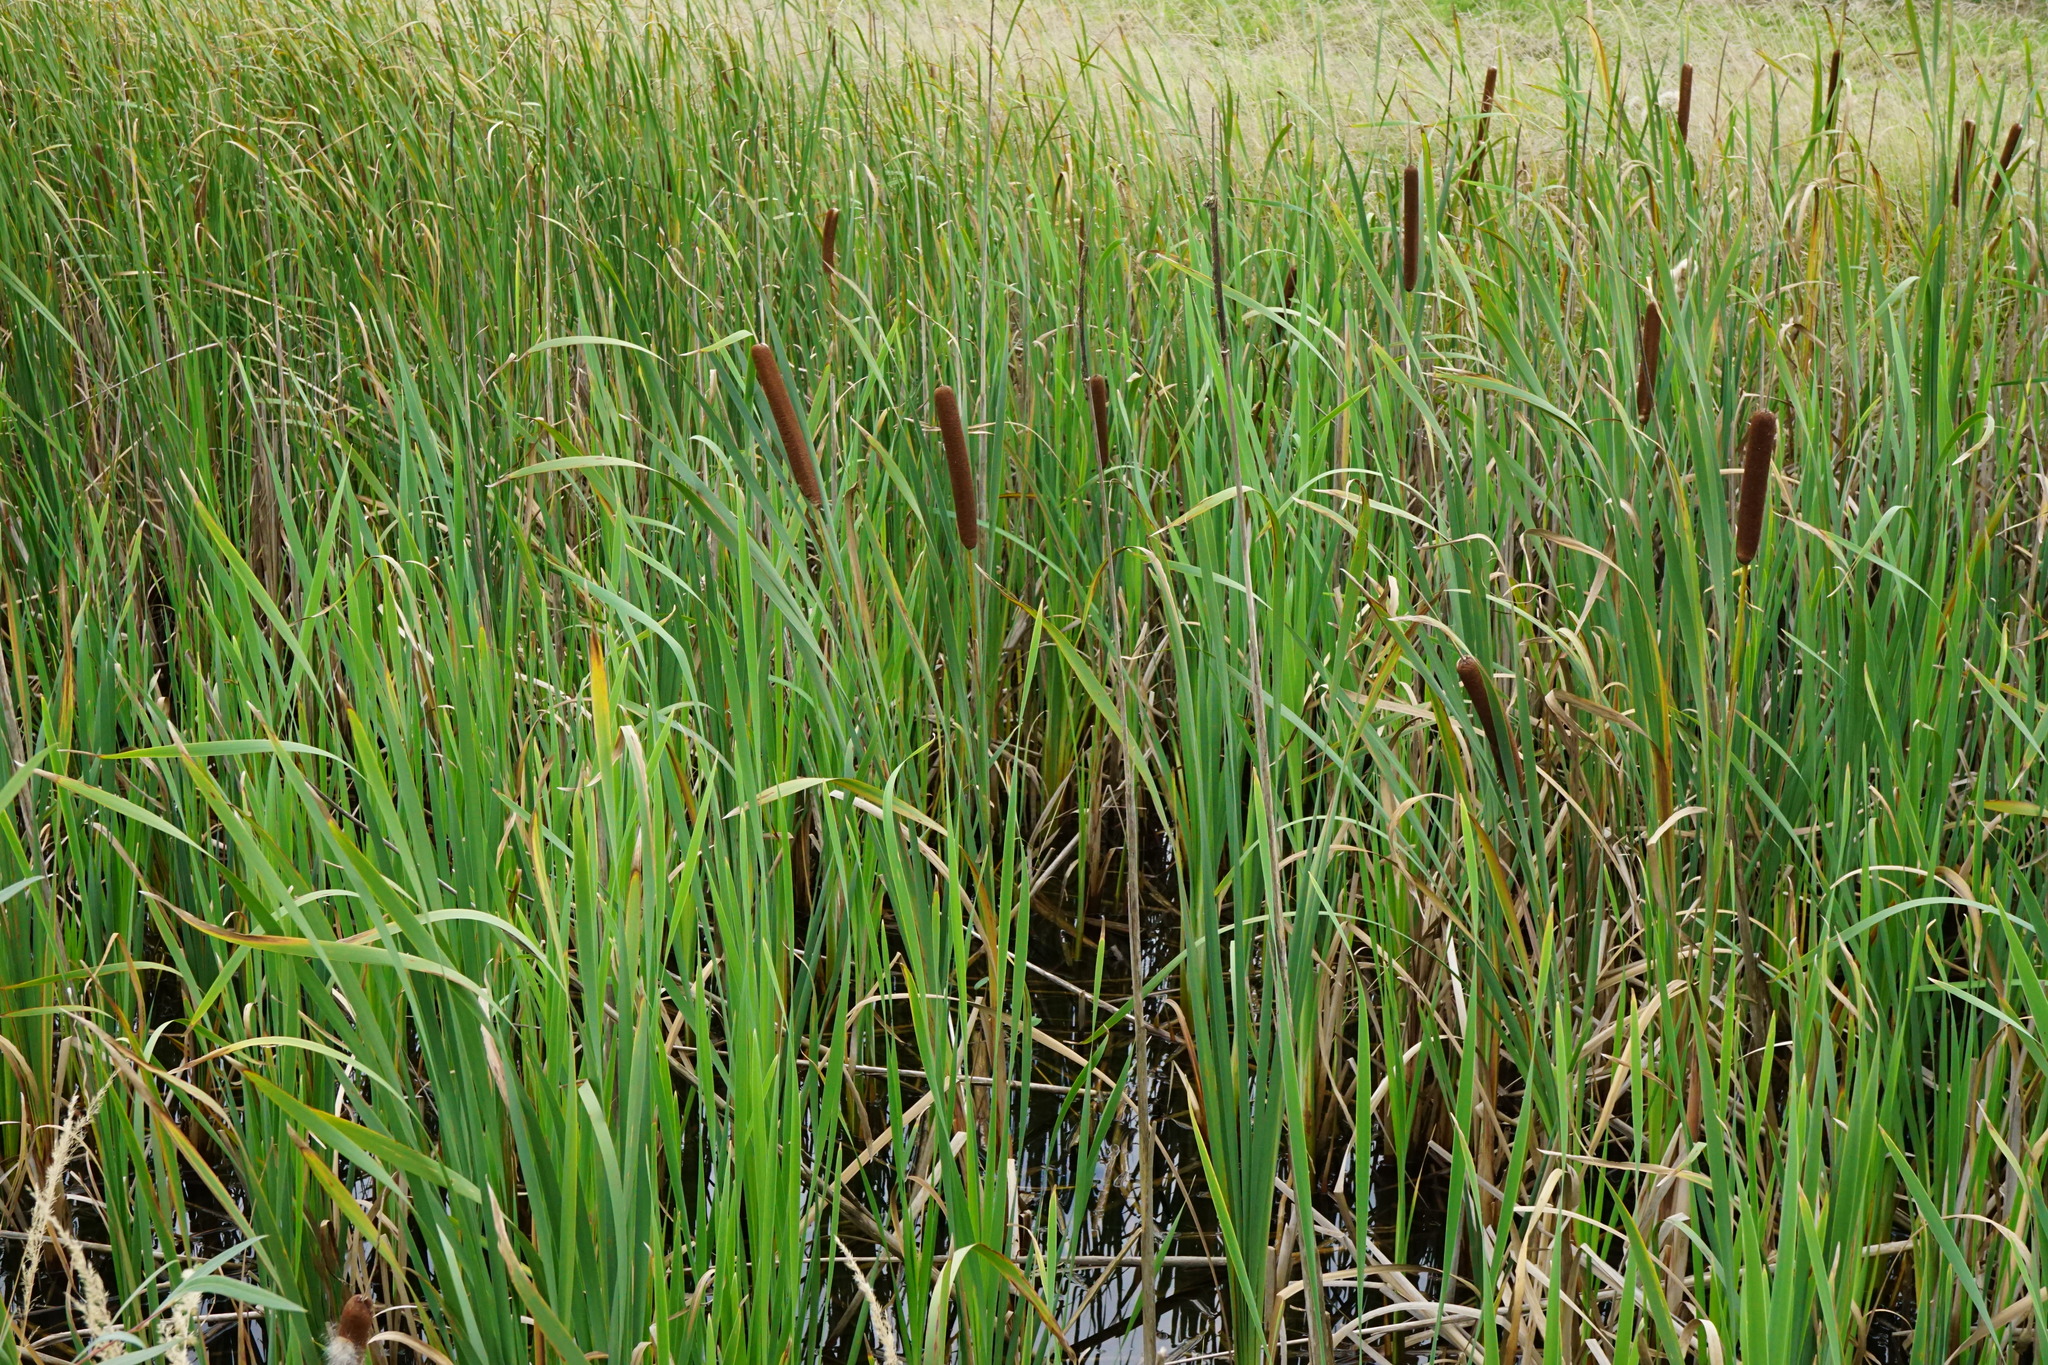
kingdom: Plantae
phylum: Tracheophyta
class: Liliopsida
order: Poales
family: Typhaceae
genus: Typha
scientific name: Typha latifolia
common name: Broadleaf cattail
